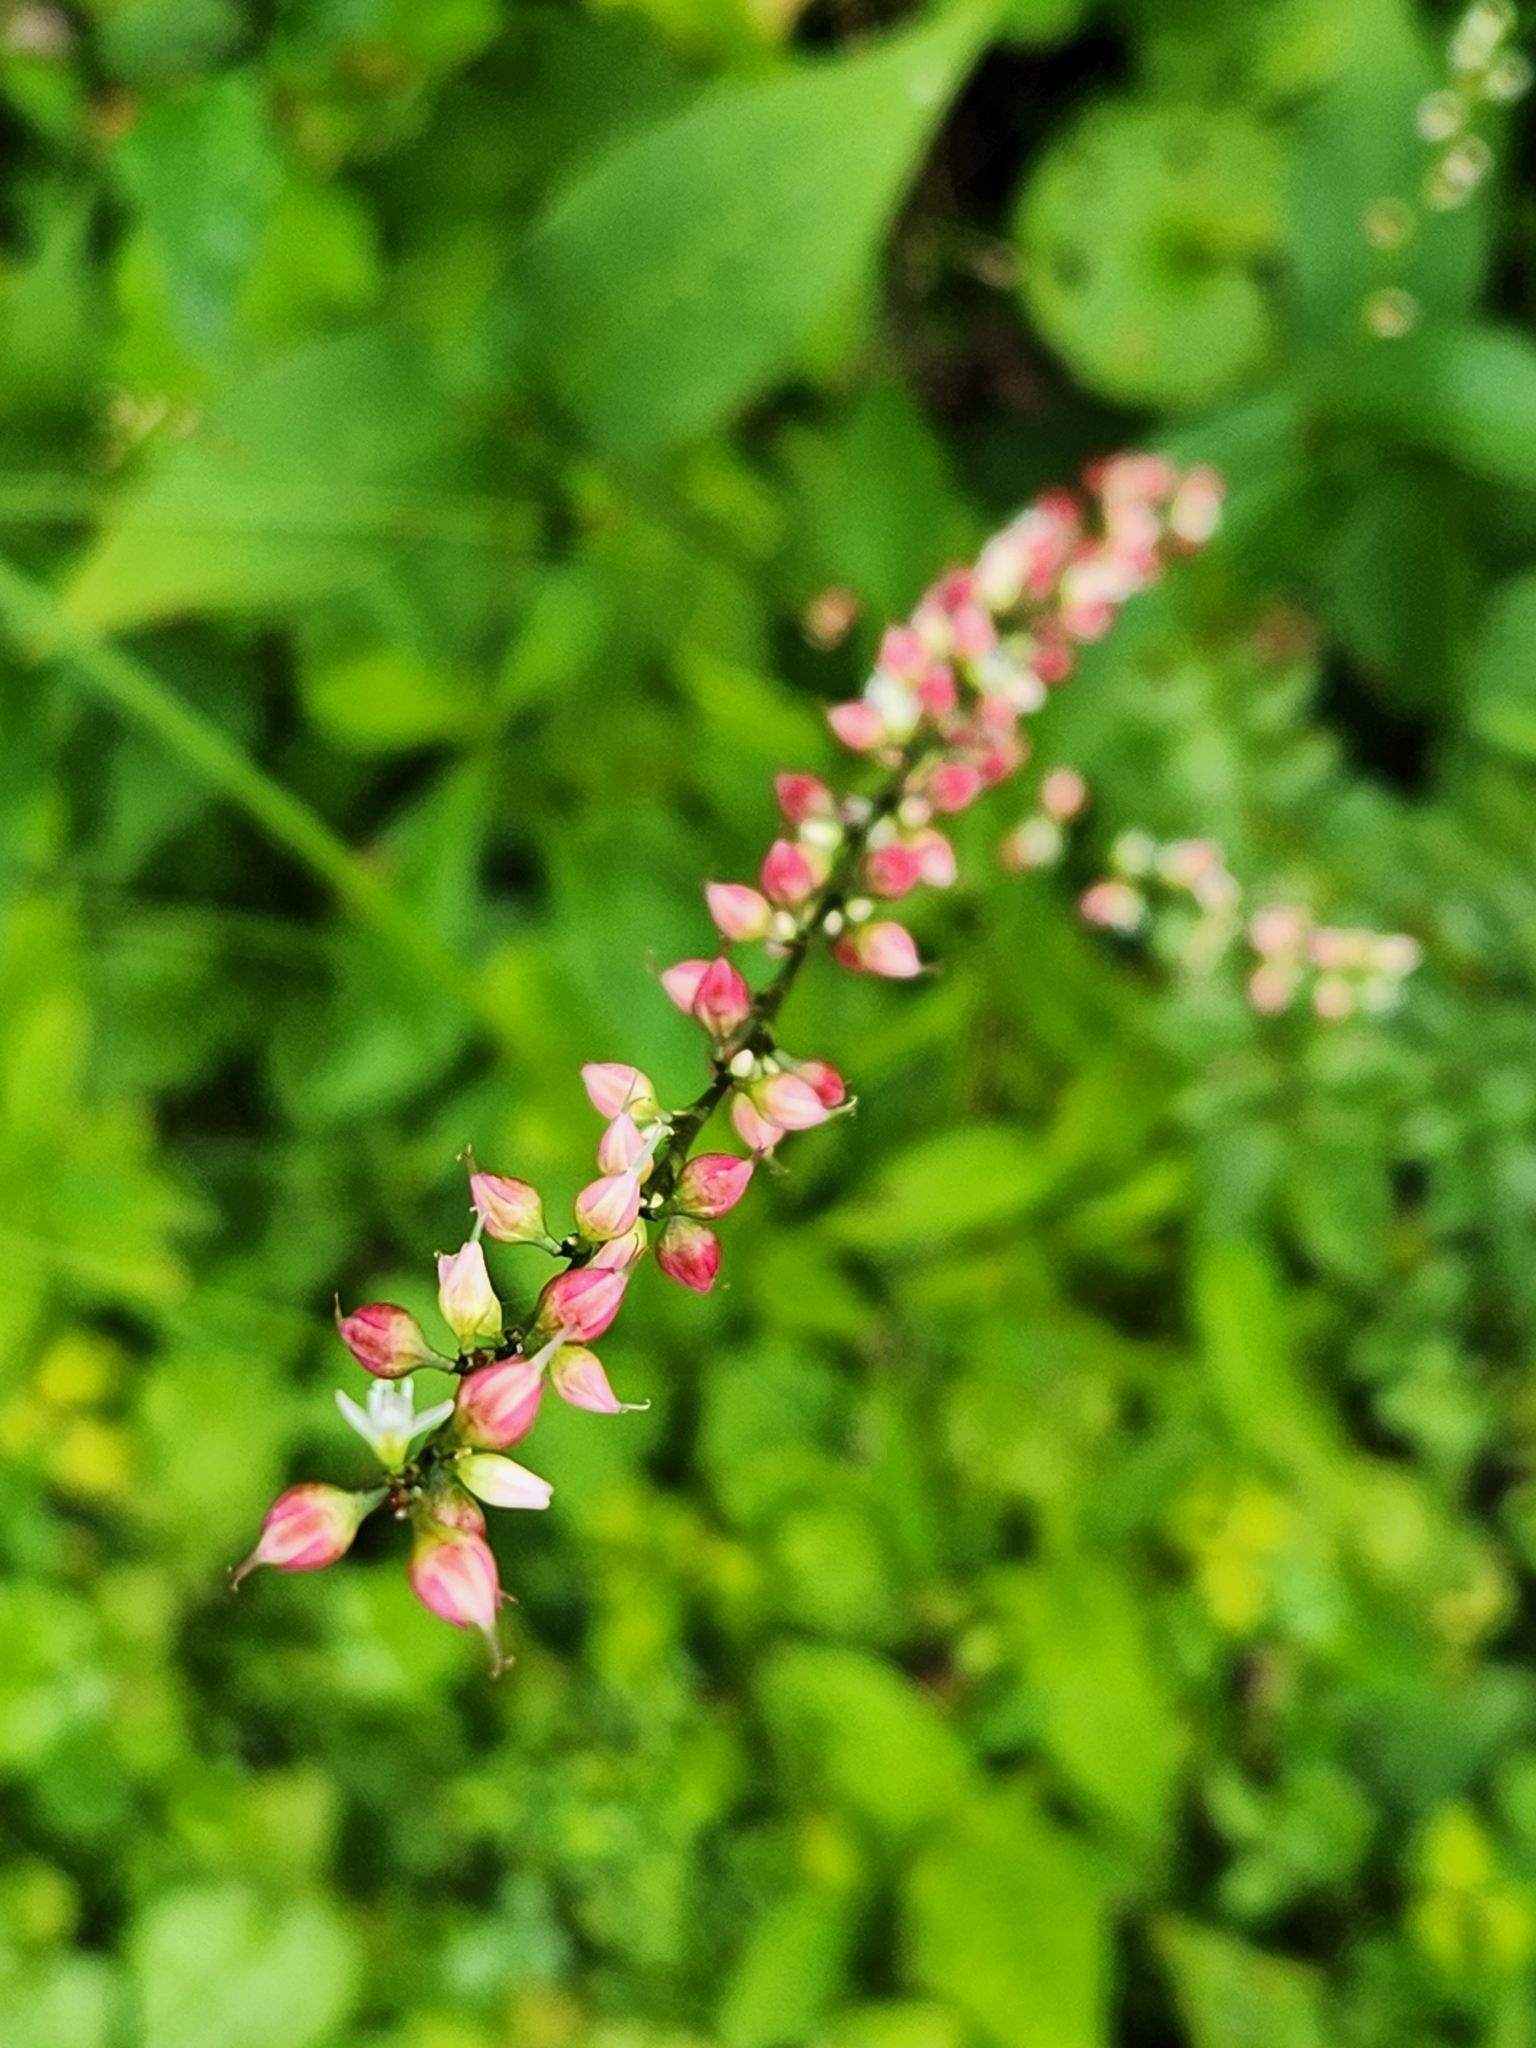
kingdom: Plantae
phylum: Tracheophyta
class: Magnoliopsida
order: Caryophyllales
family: Polygonaceae
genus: Persicaria
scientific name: Persicaria virginiana
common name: Jumpseed
